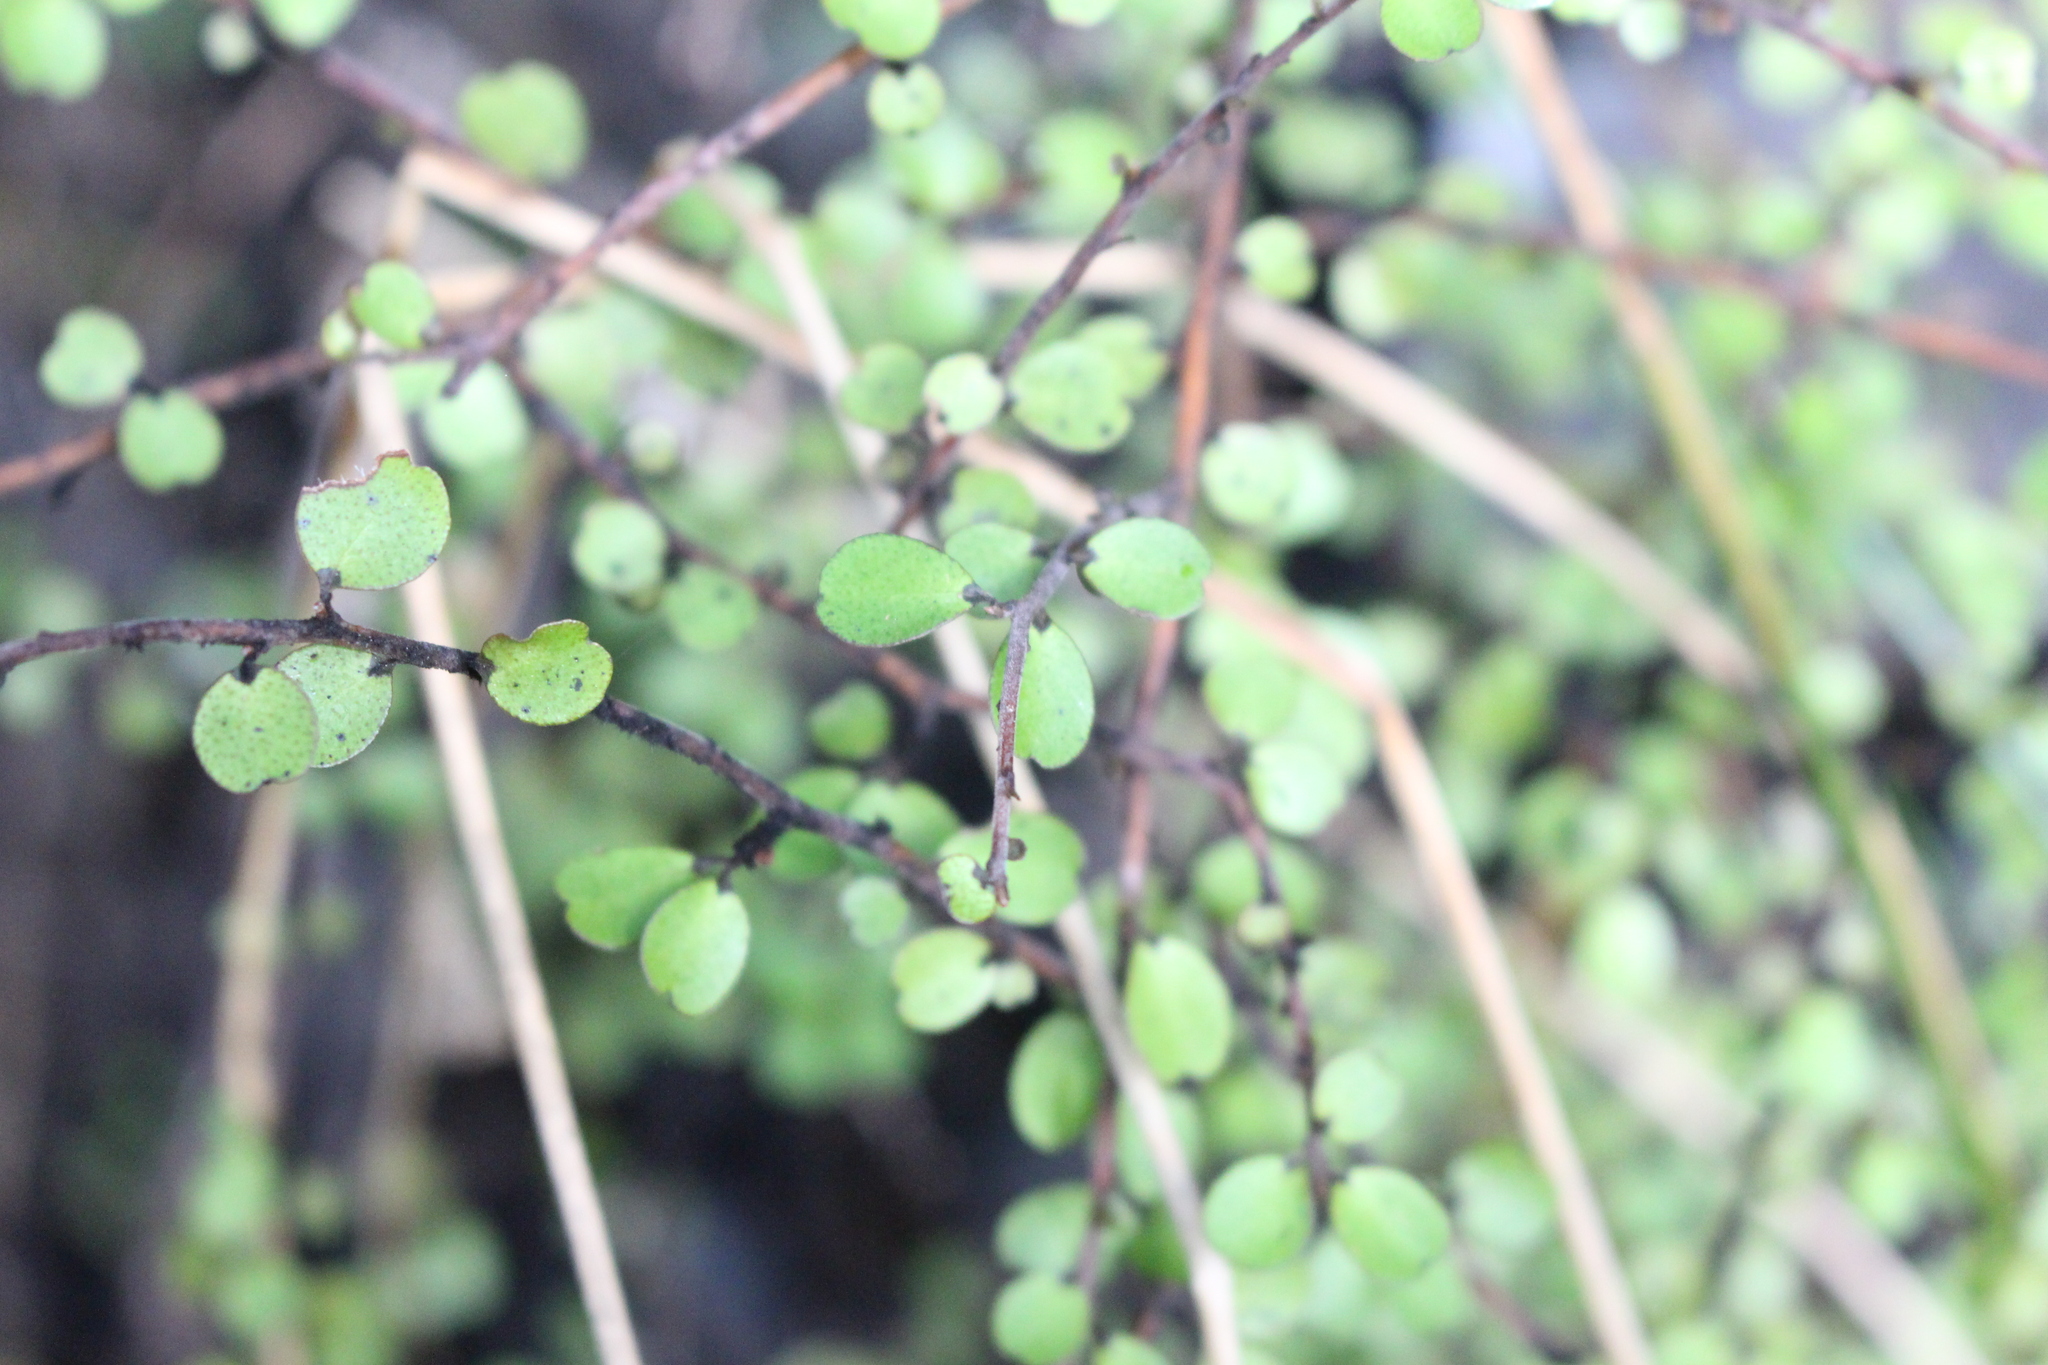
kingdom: Plantae
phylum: Tracheophyta
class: Magnoliopsida
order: Ericales
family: Primulaceae
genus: Myrsine
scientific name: Myrsine divaricata
